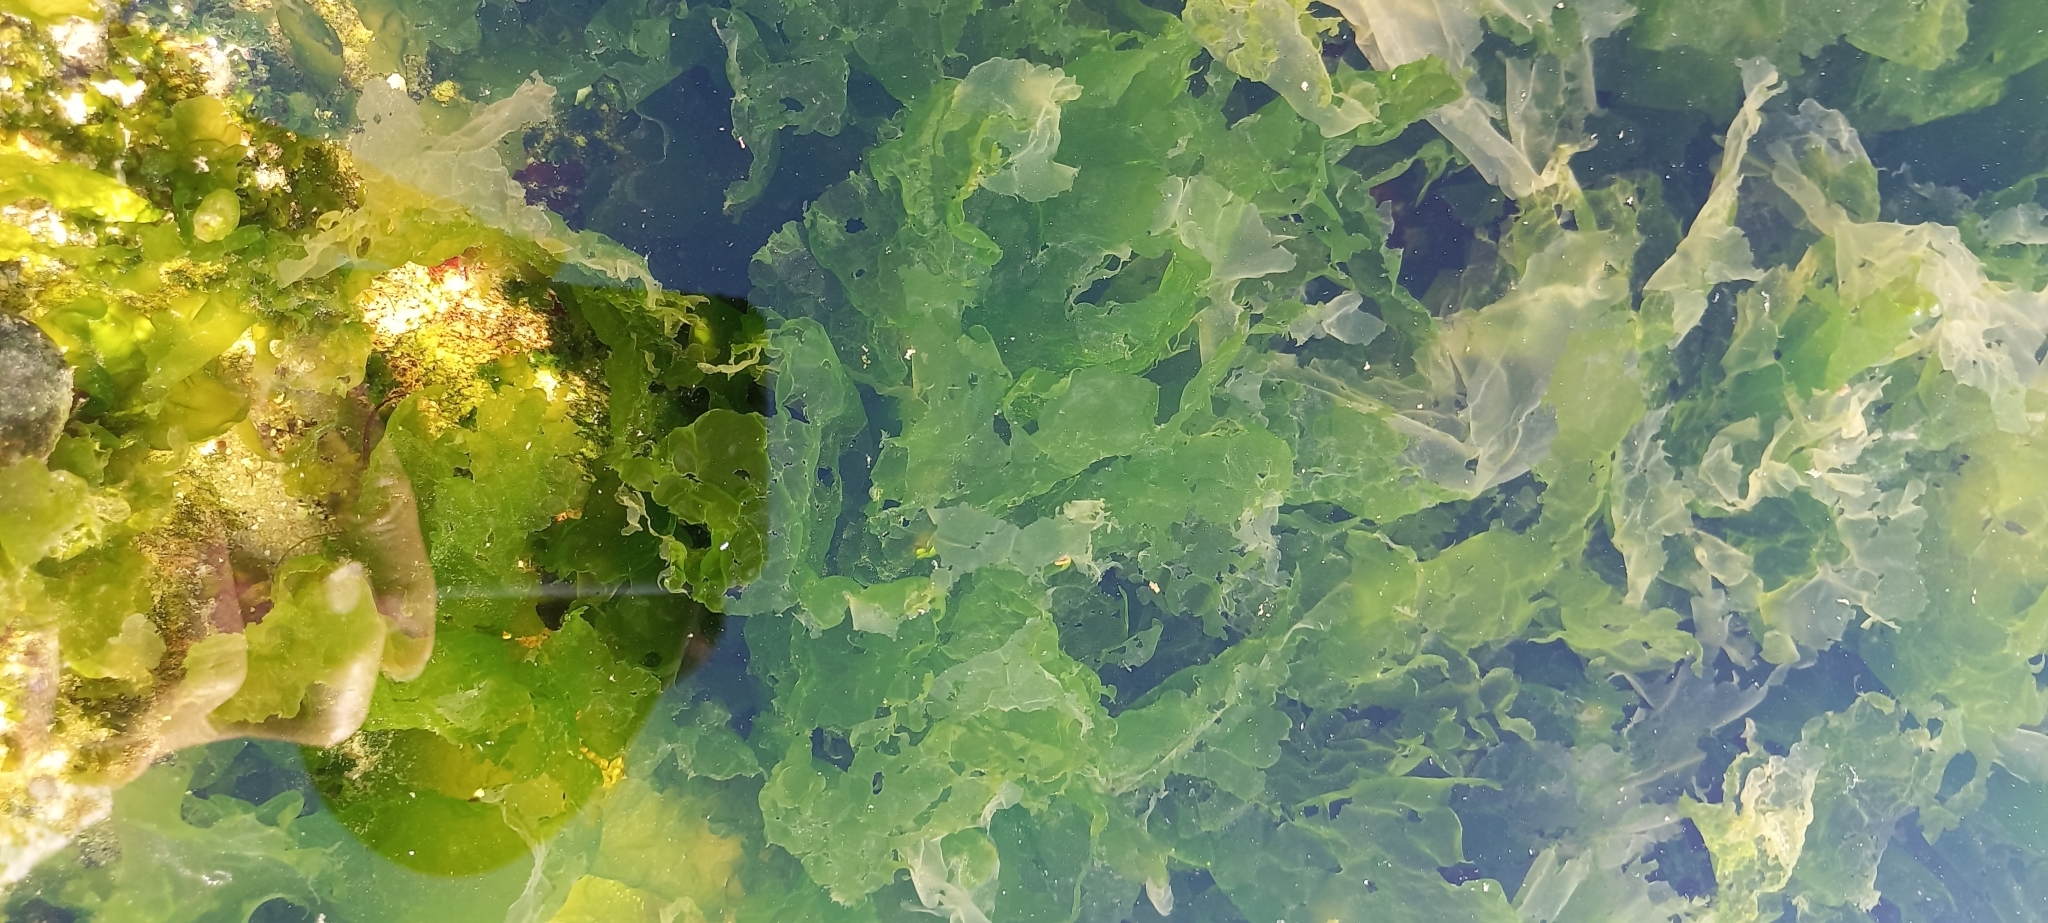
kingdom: Plantae
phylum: Chlorophyta
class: Ulvophyceae
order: Ulvales
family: Ulvaceae
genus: Ulva
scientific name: Ulva lactuca
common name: Sea lettuce
